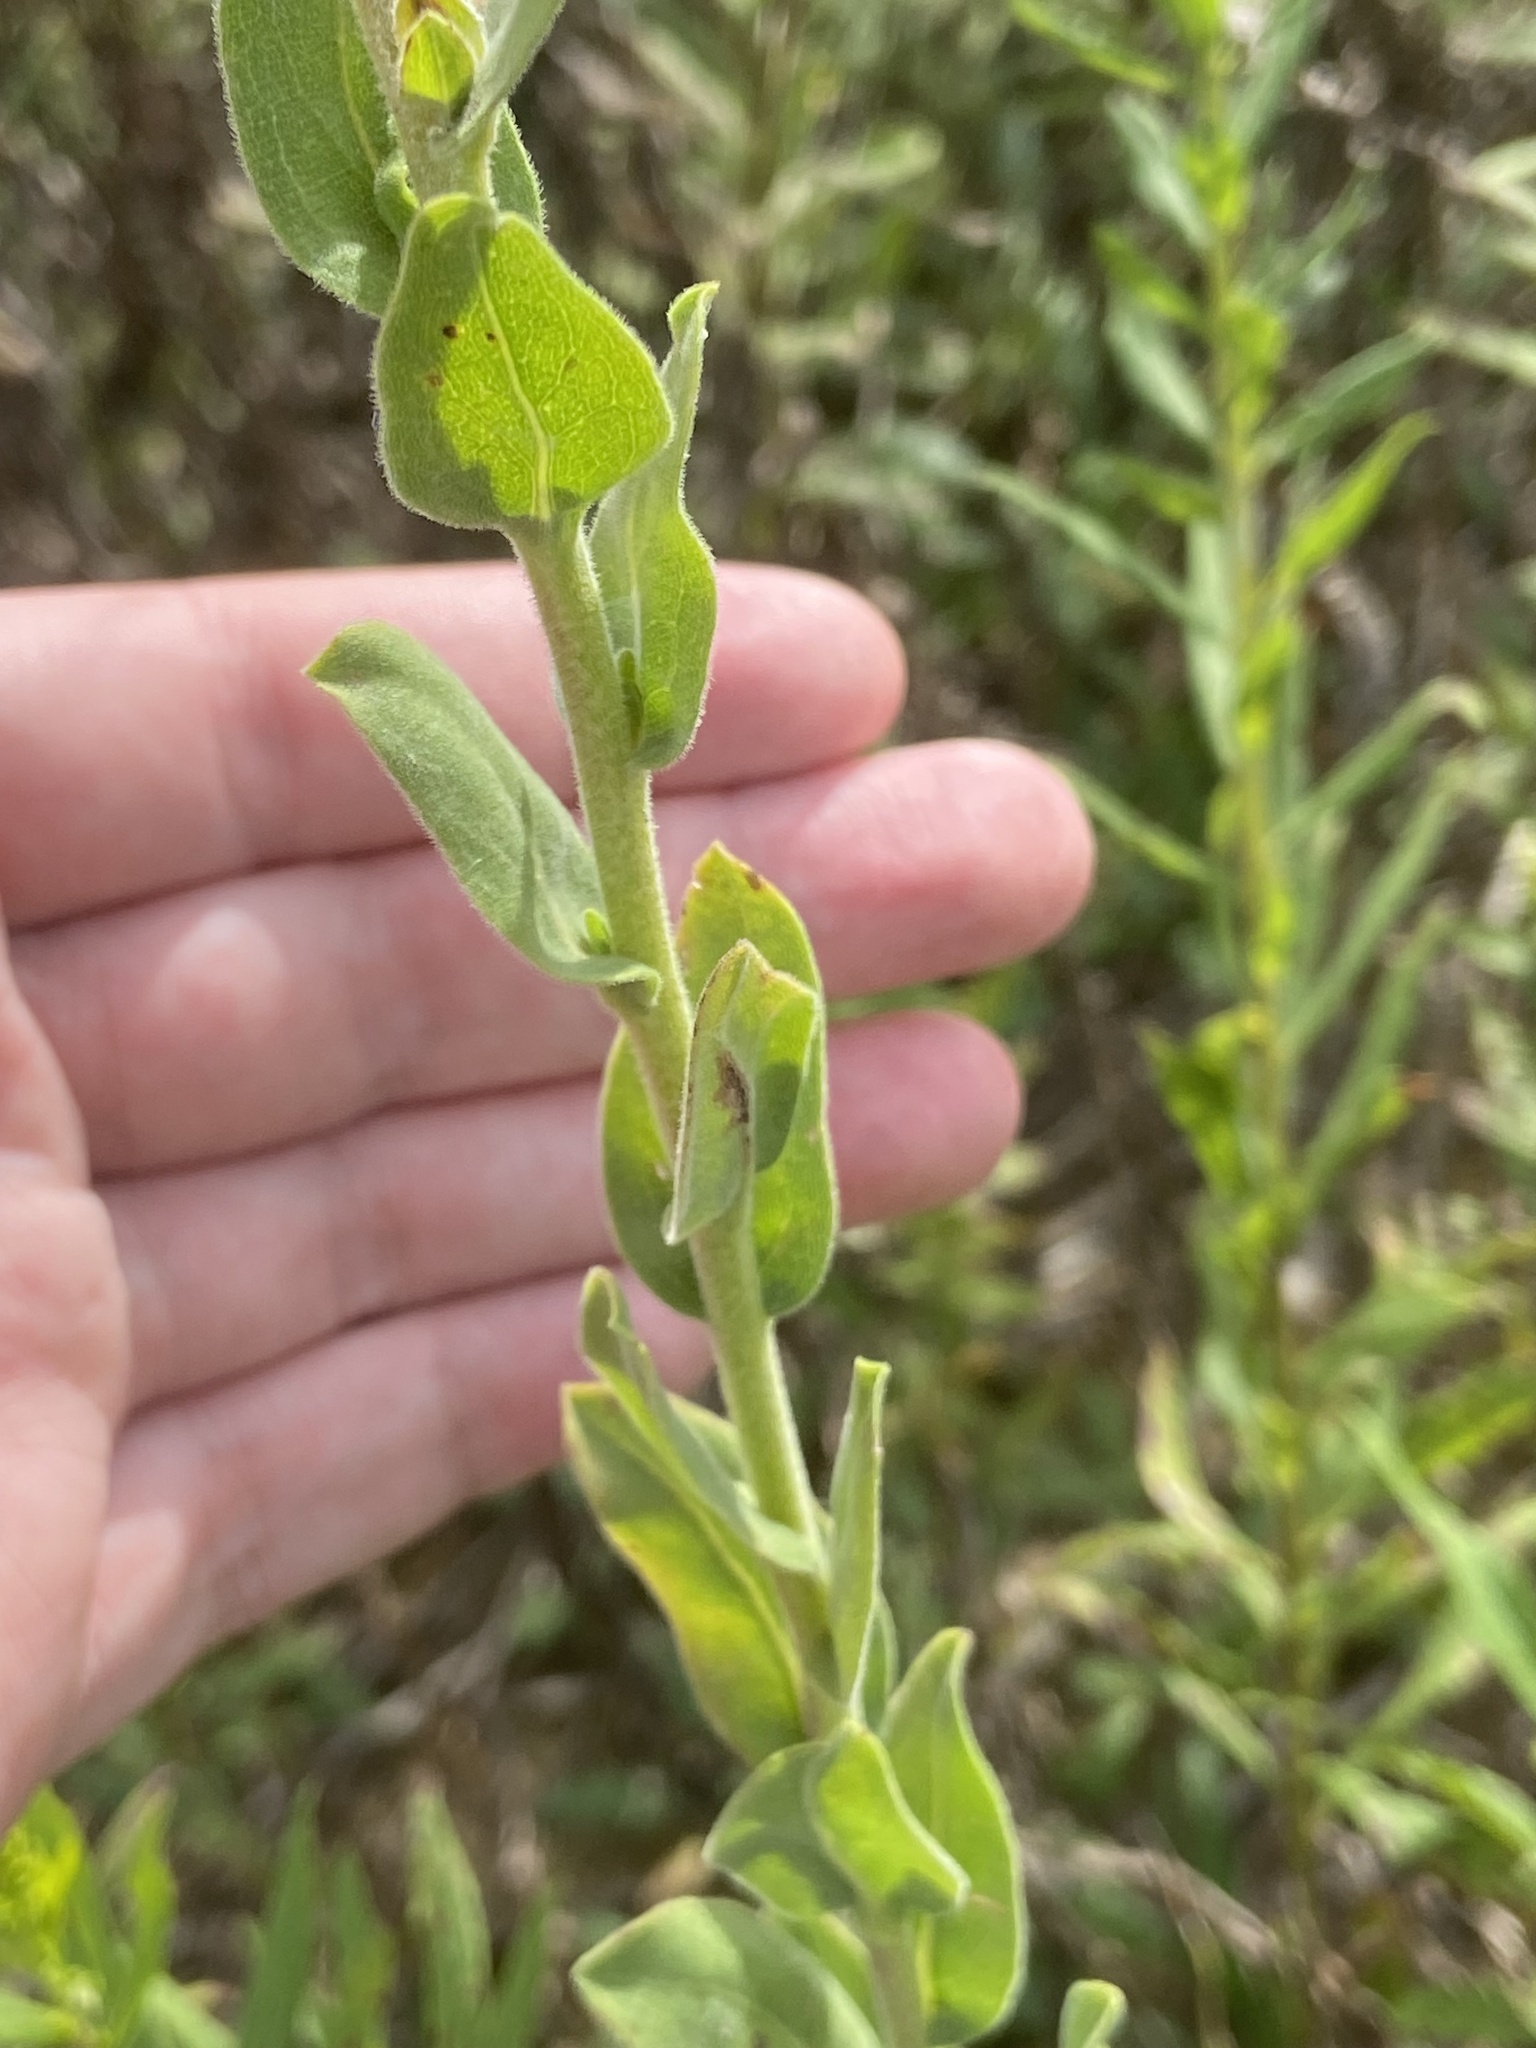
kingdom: Plantae
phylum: Tracheophyta
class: Magnoliopsida
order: Asterales
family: Asteraceae
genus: Solidago
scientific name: Solidago rigida
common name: Rigid goldenrod
